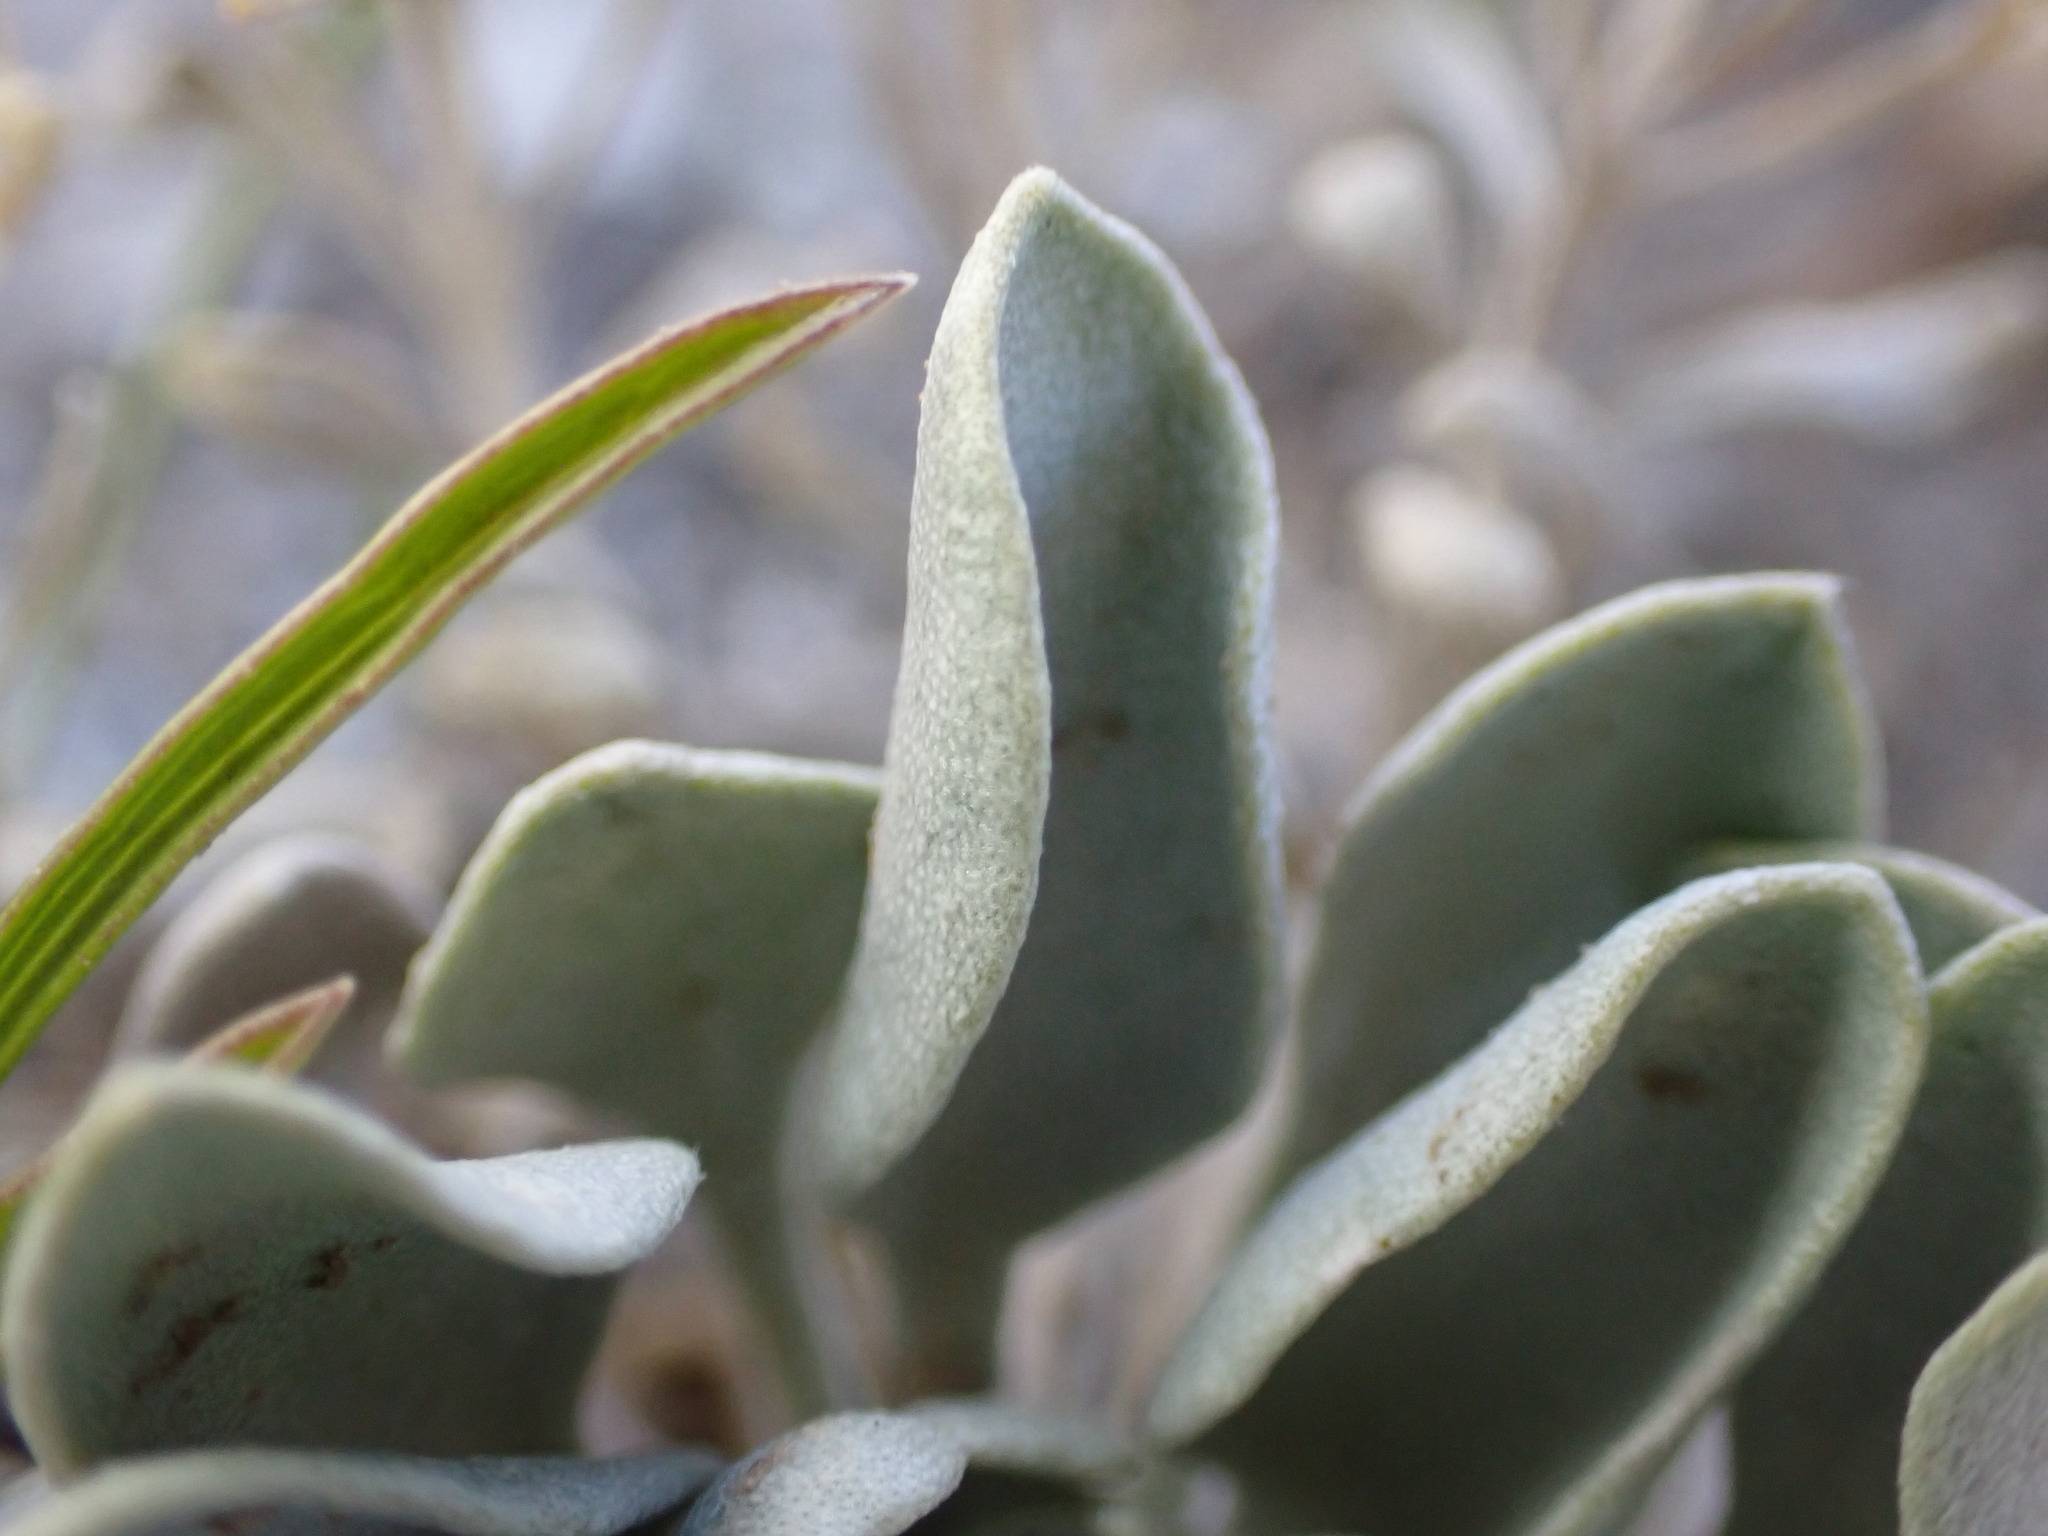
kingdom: Plantae
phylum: Tracheophyta
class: Magnoliopsida
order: Brassicales
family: Brassicaceae
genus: Physaria
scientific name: Physaria acutifolia
